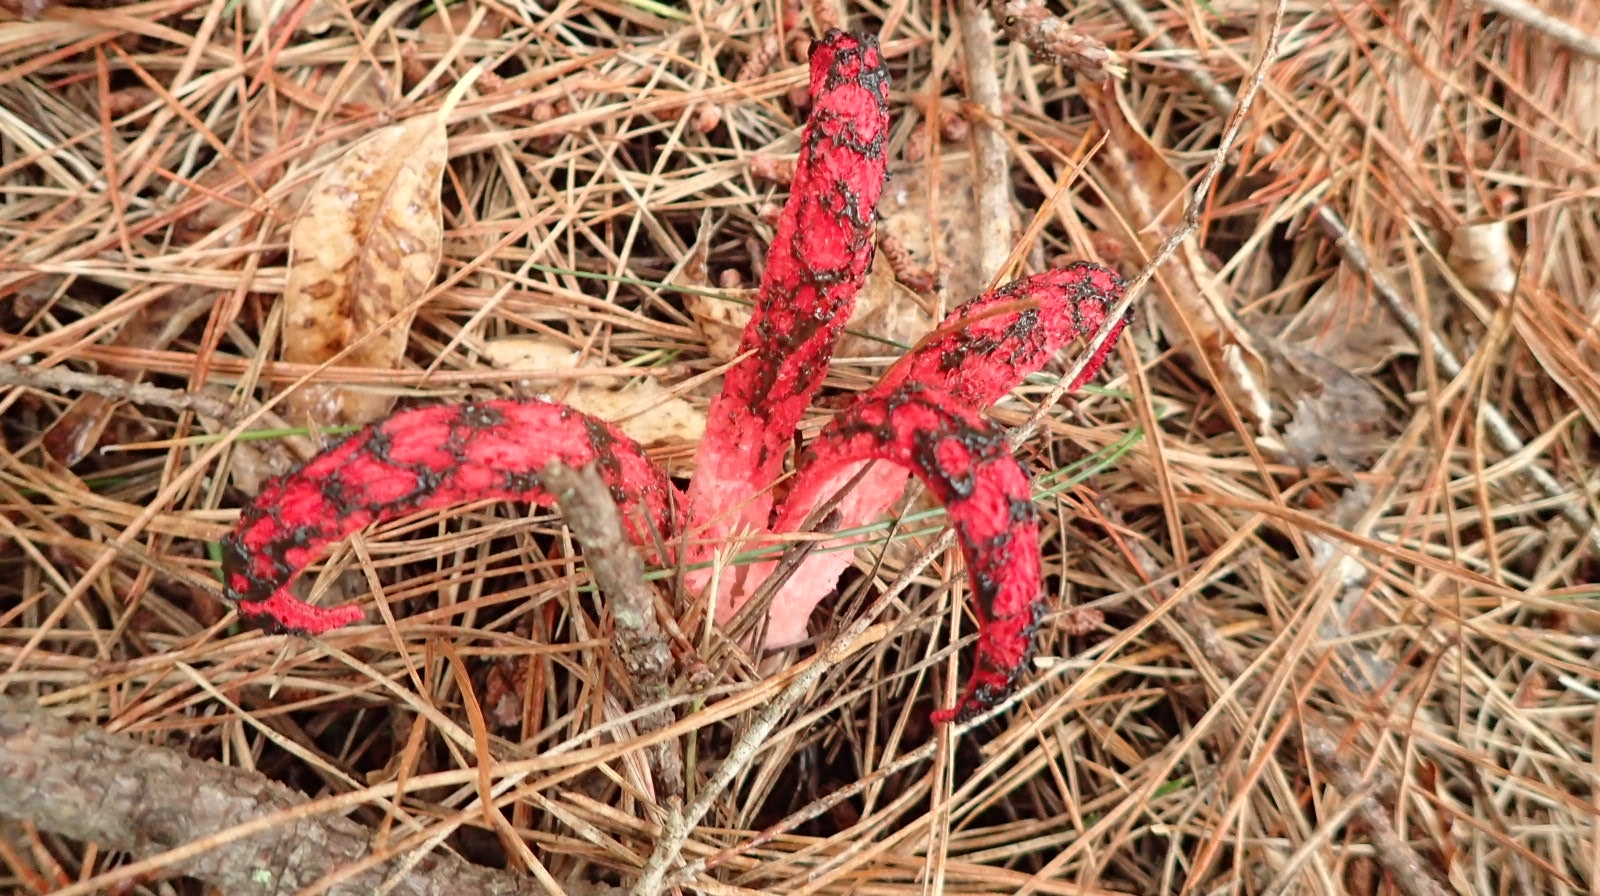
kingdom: Fungi
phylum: Basidiomycota
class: Agaricomycetes
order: Phallales
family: Phallaceae
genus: Clathrus
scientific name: Clathrus archeri
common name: Devil's fingers
